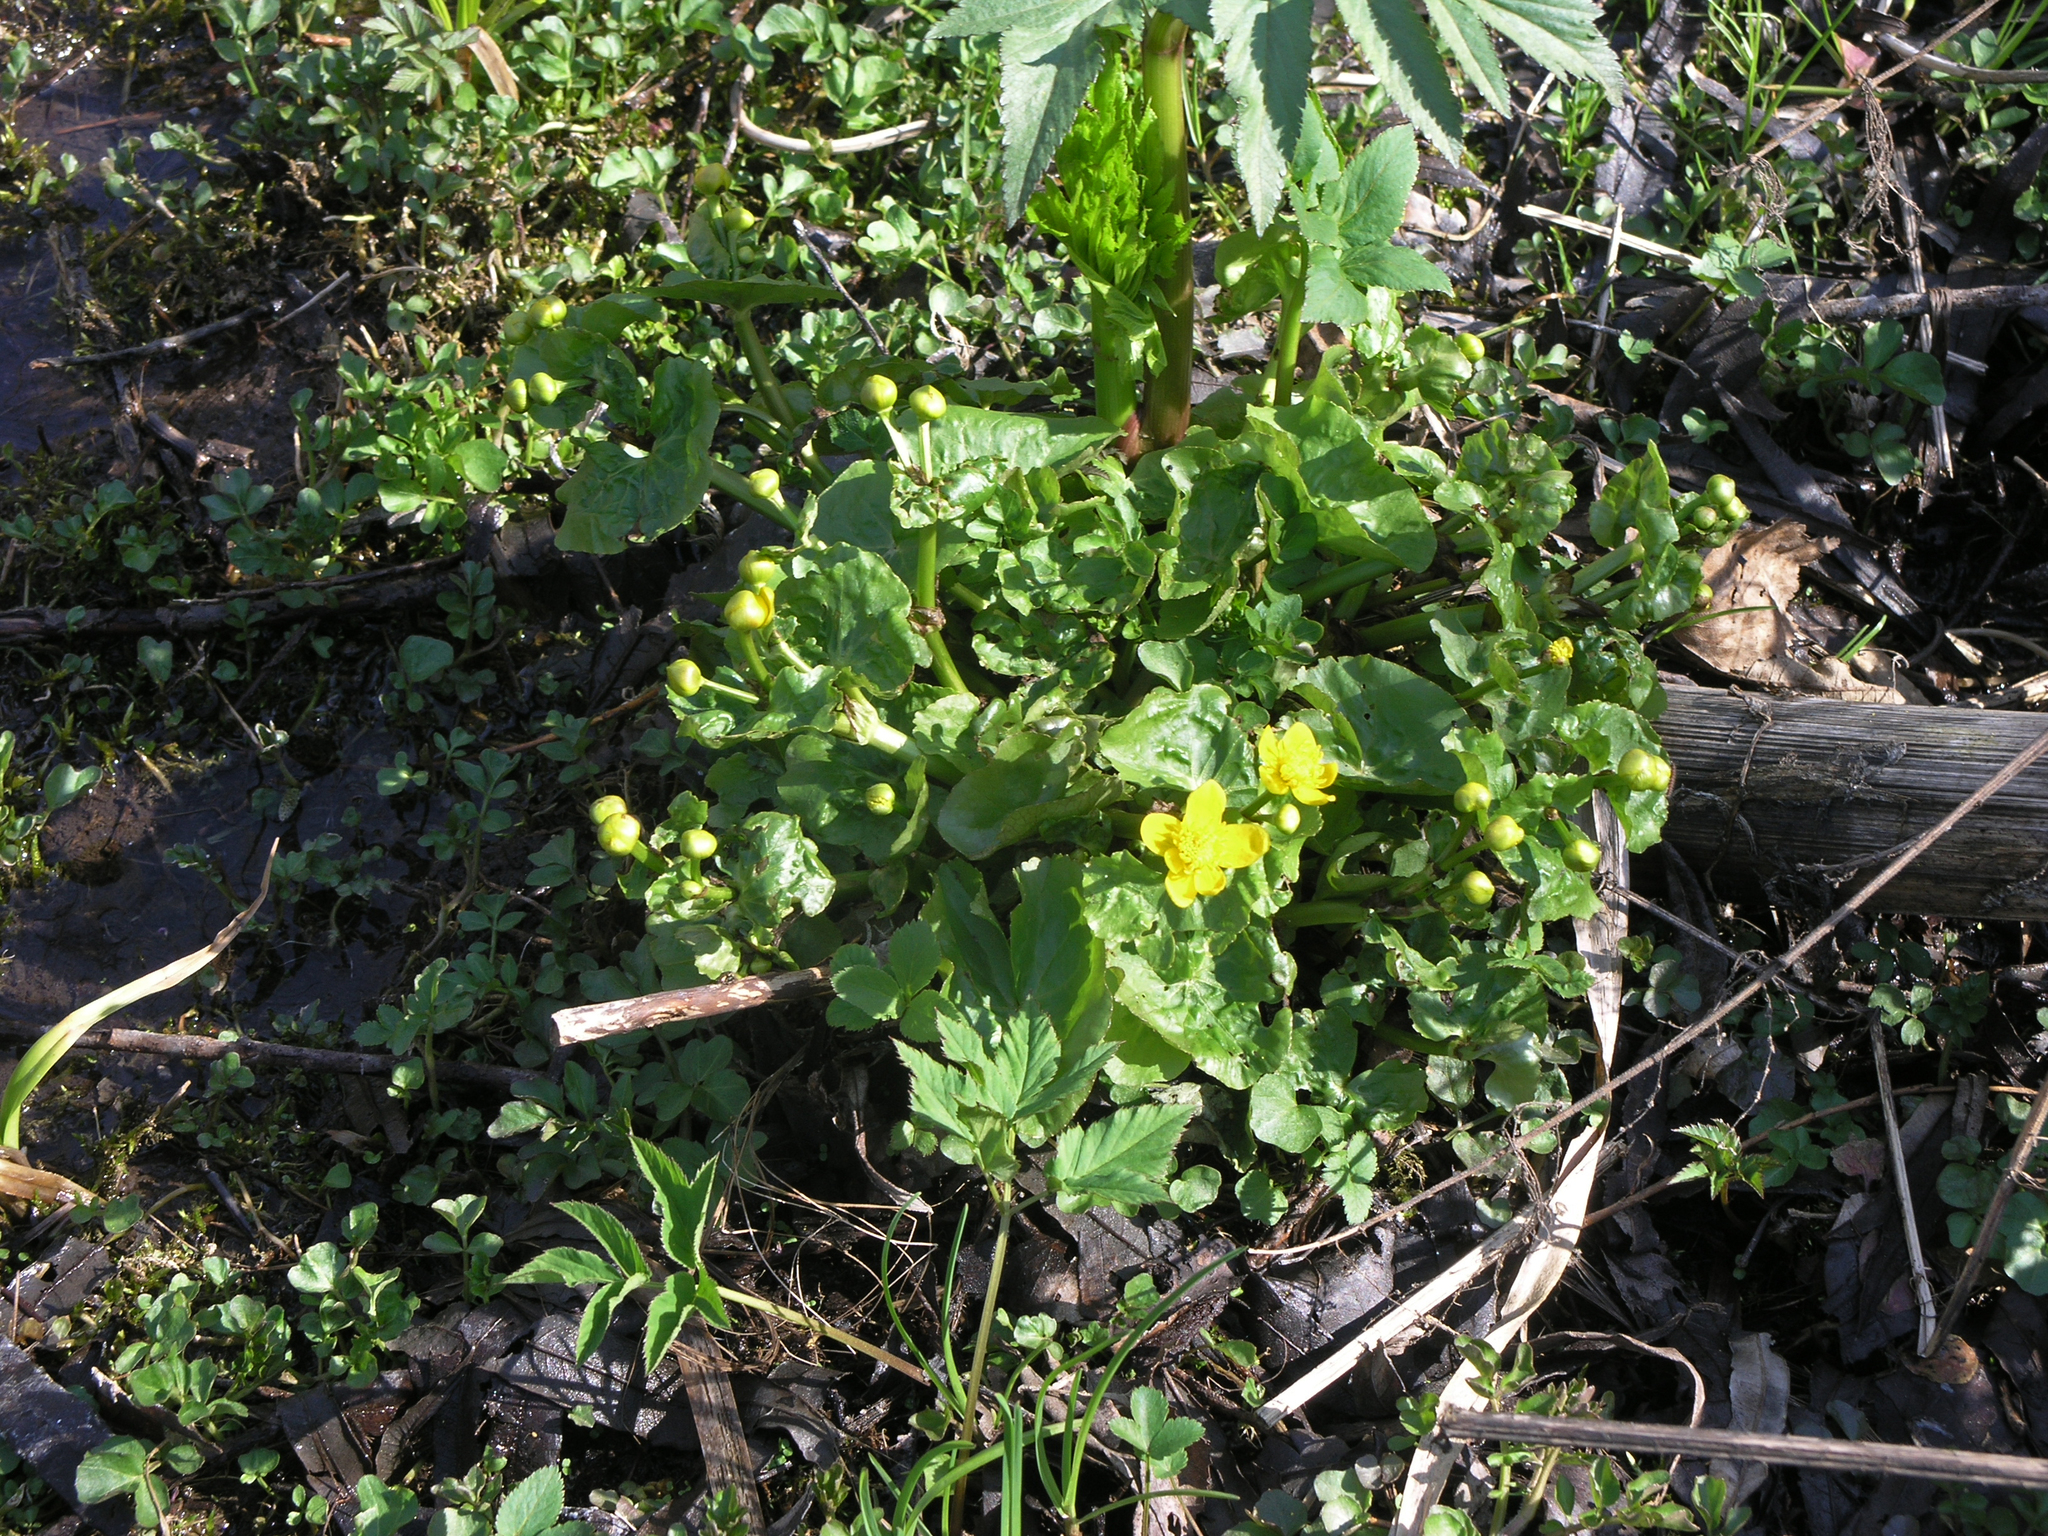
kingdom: Plantae
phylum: Tracheophyta
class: Magnoliopsida
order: Ranunculales
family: Ranunculaceae
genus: Caltha
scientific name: Caltha palustris
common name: Marsh marigold
